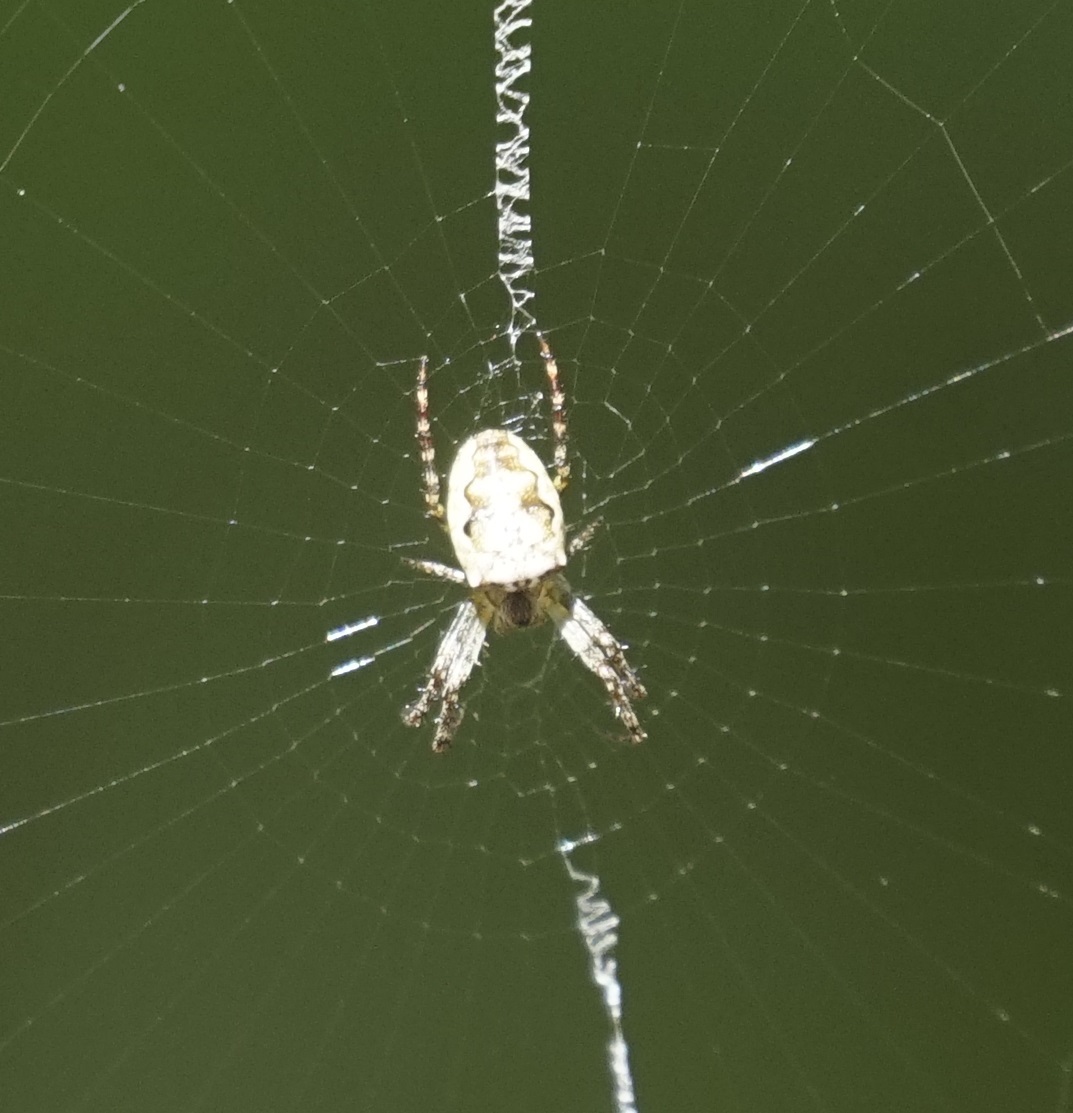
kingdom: Animalia
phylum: Arthropoda
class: Arachnida
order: Araneae
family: Araneidae
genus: Plebs
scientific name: Plebs eburnus
